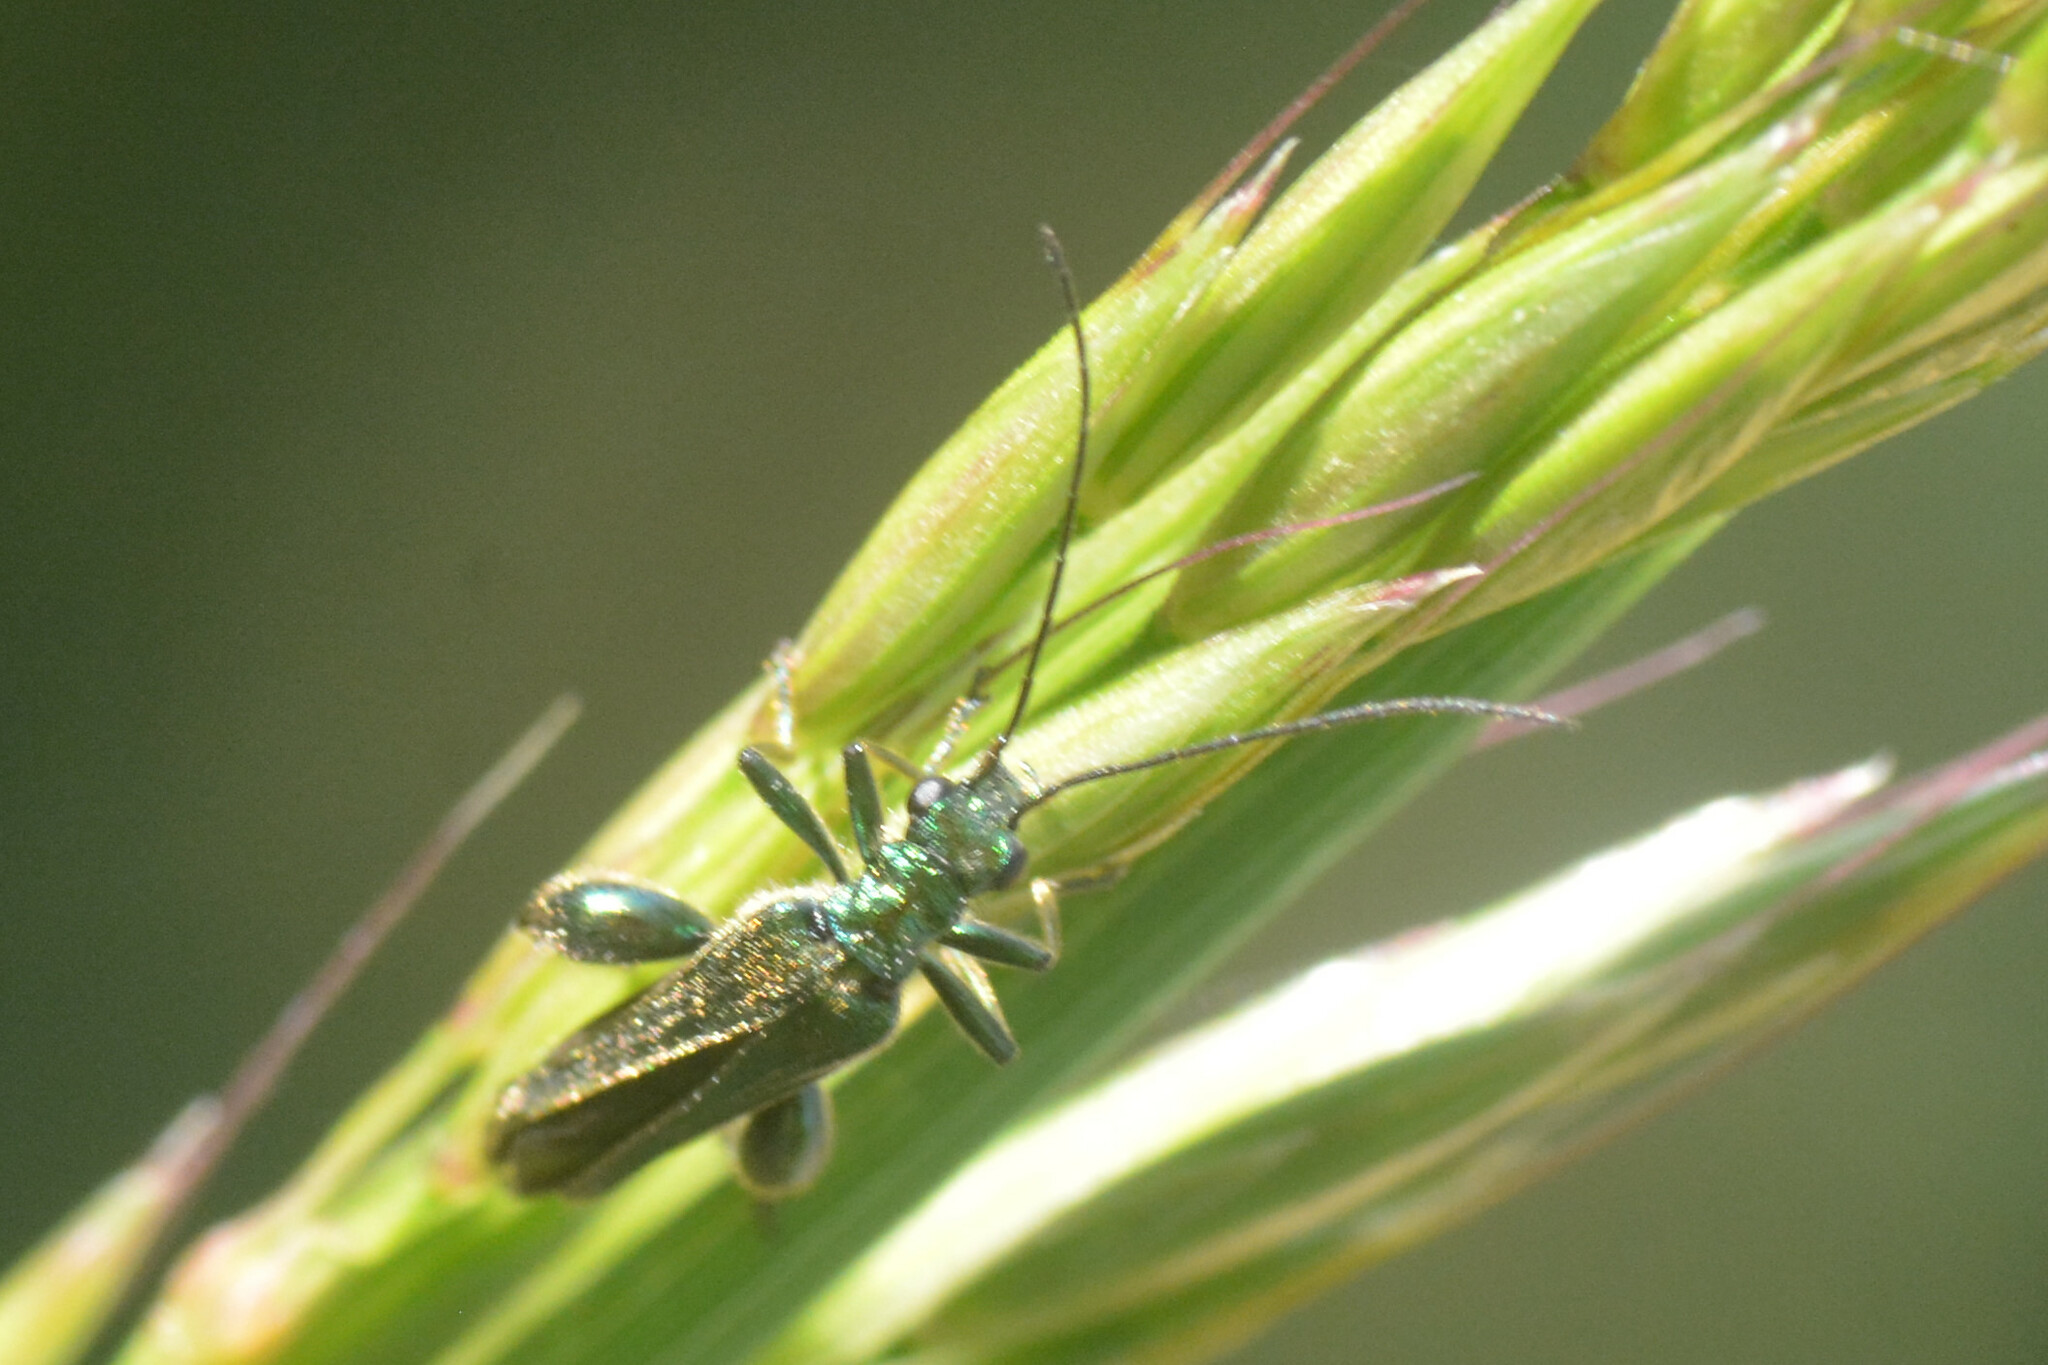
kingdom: Animalia
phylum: Arthropoda
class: Insecta
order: Coleoptera
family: Oedemeridae
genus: Oedemera
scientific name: Oedemera nobilis
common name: Swollen-thighed beetle
